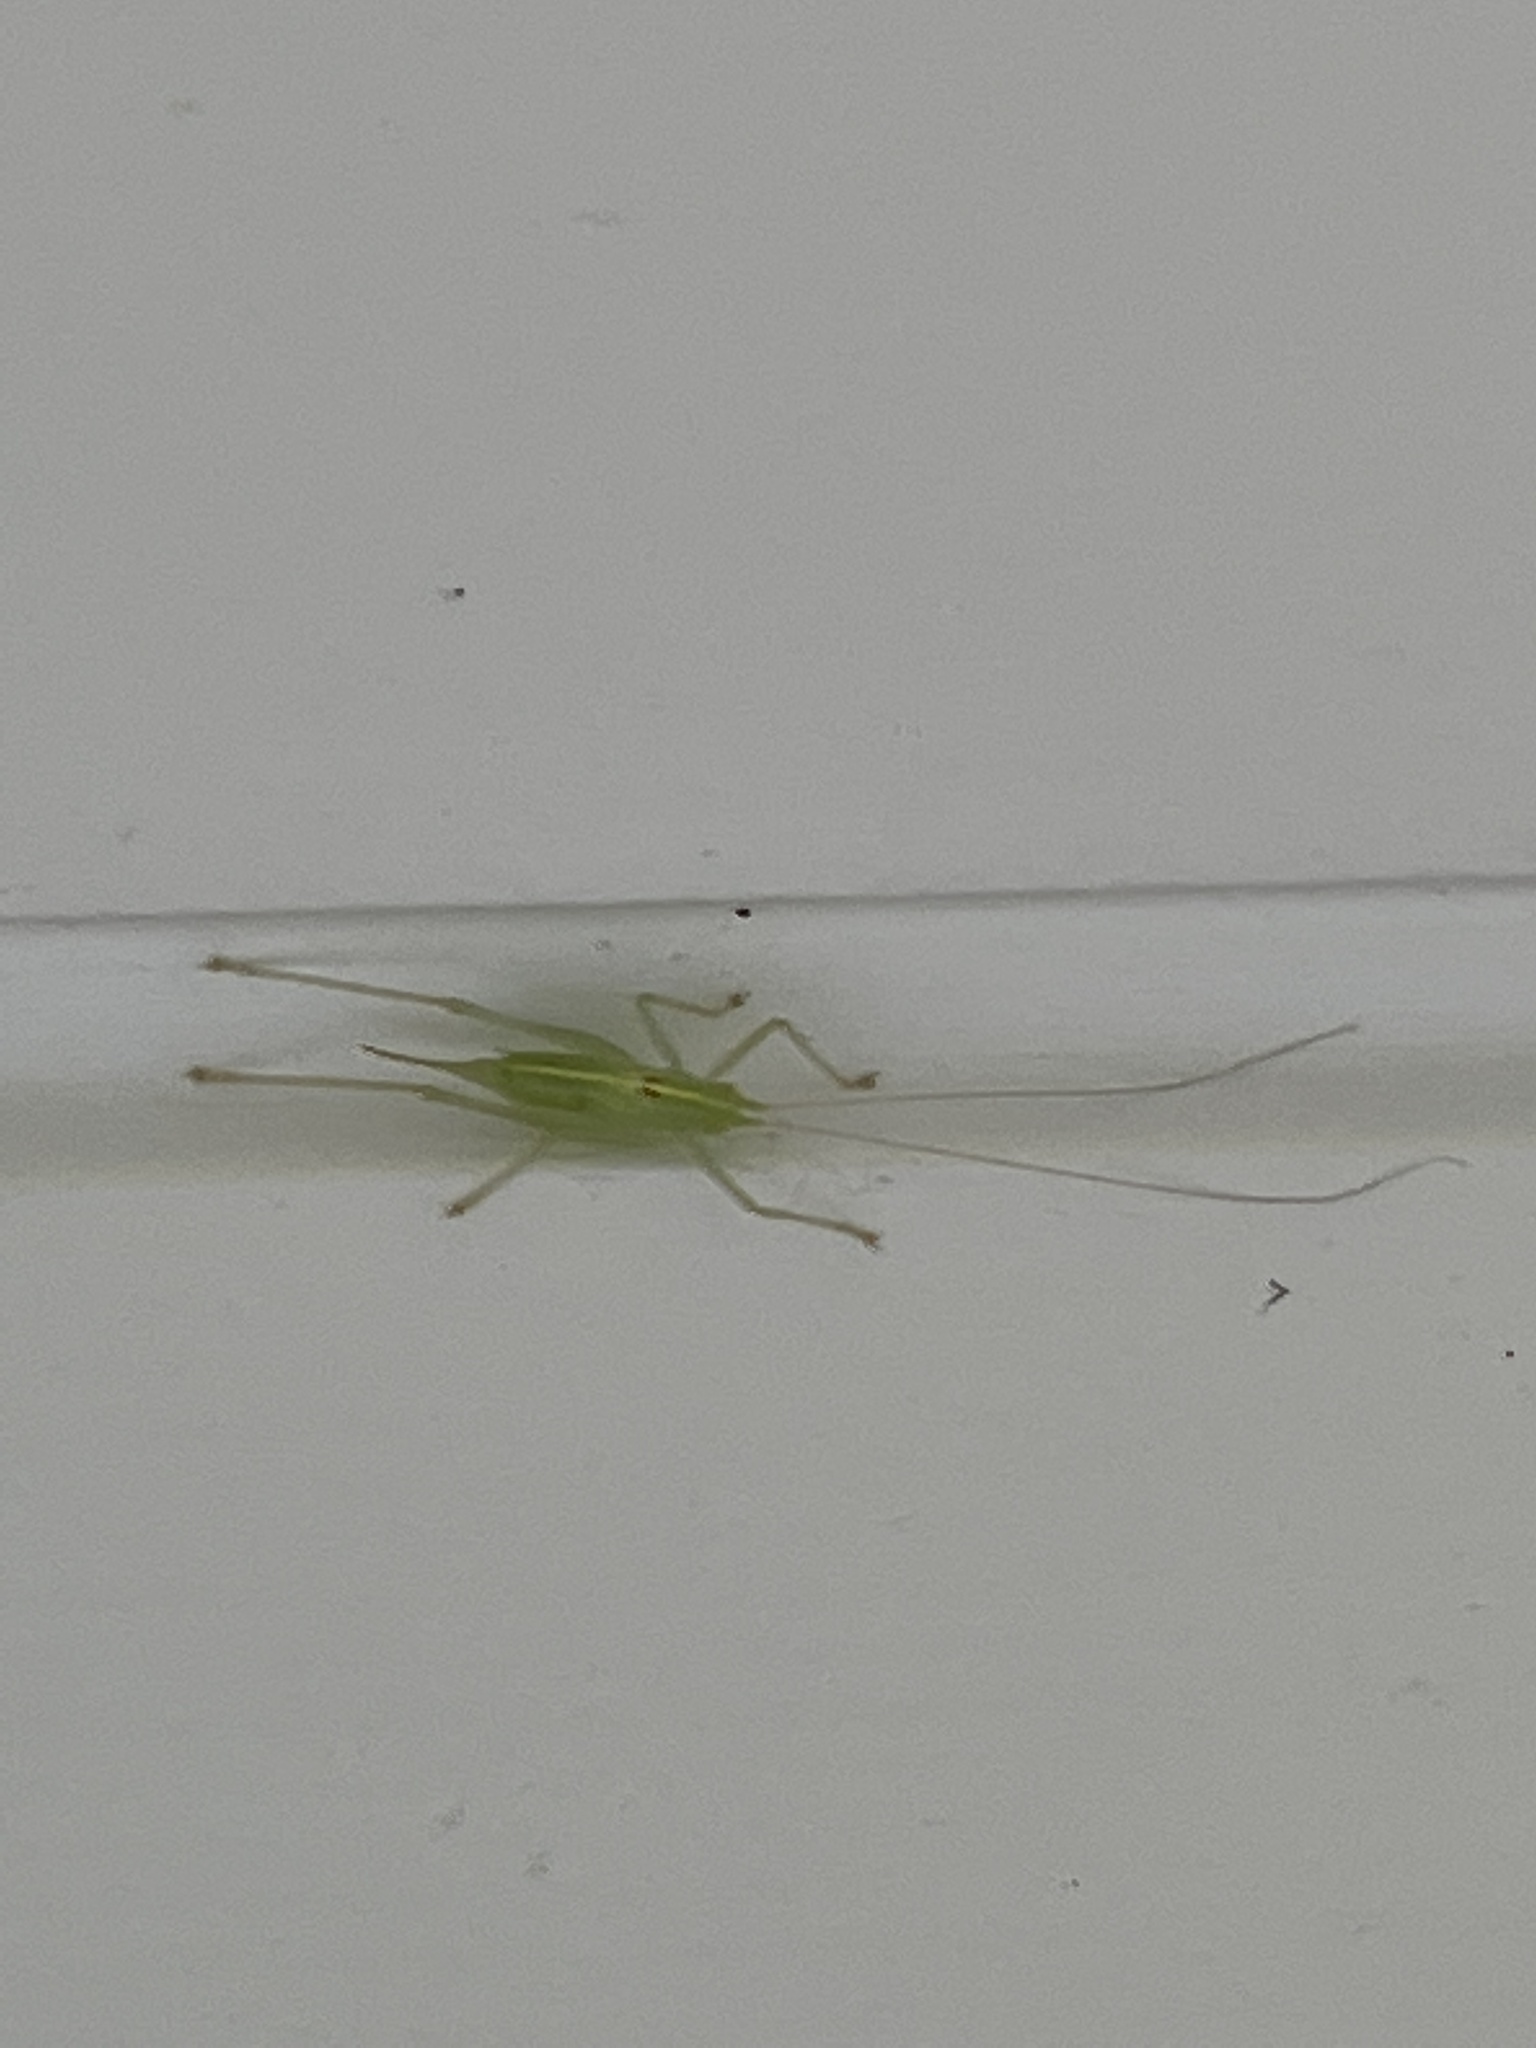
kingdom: Animalia
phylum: Arthropoda
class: Insecta
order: Orthoptera
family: Tettigoniidae
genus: Meconema
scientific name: Meconema meridionale
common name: Southern oak bush-cricket
